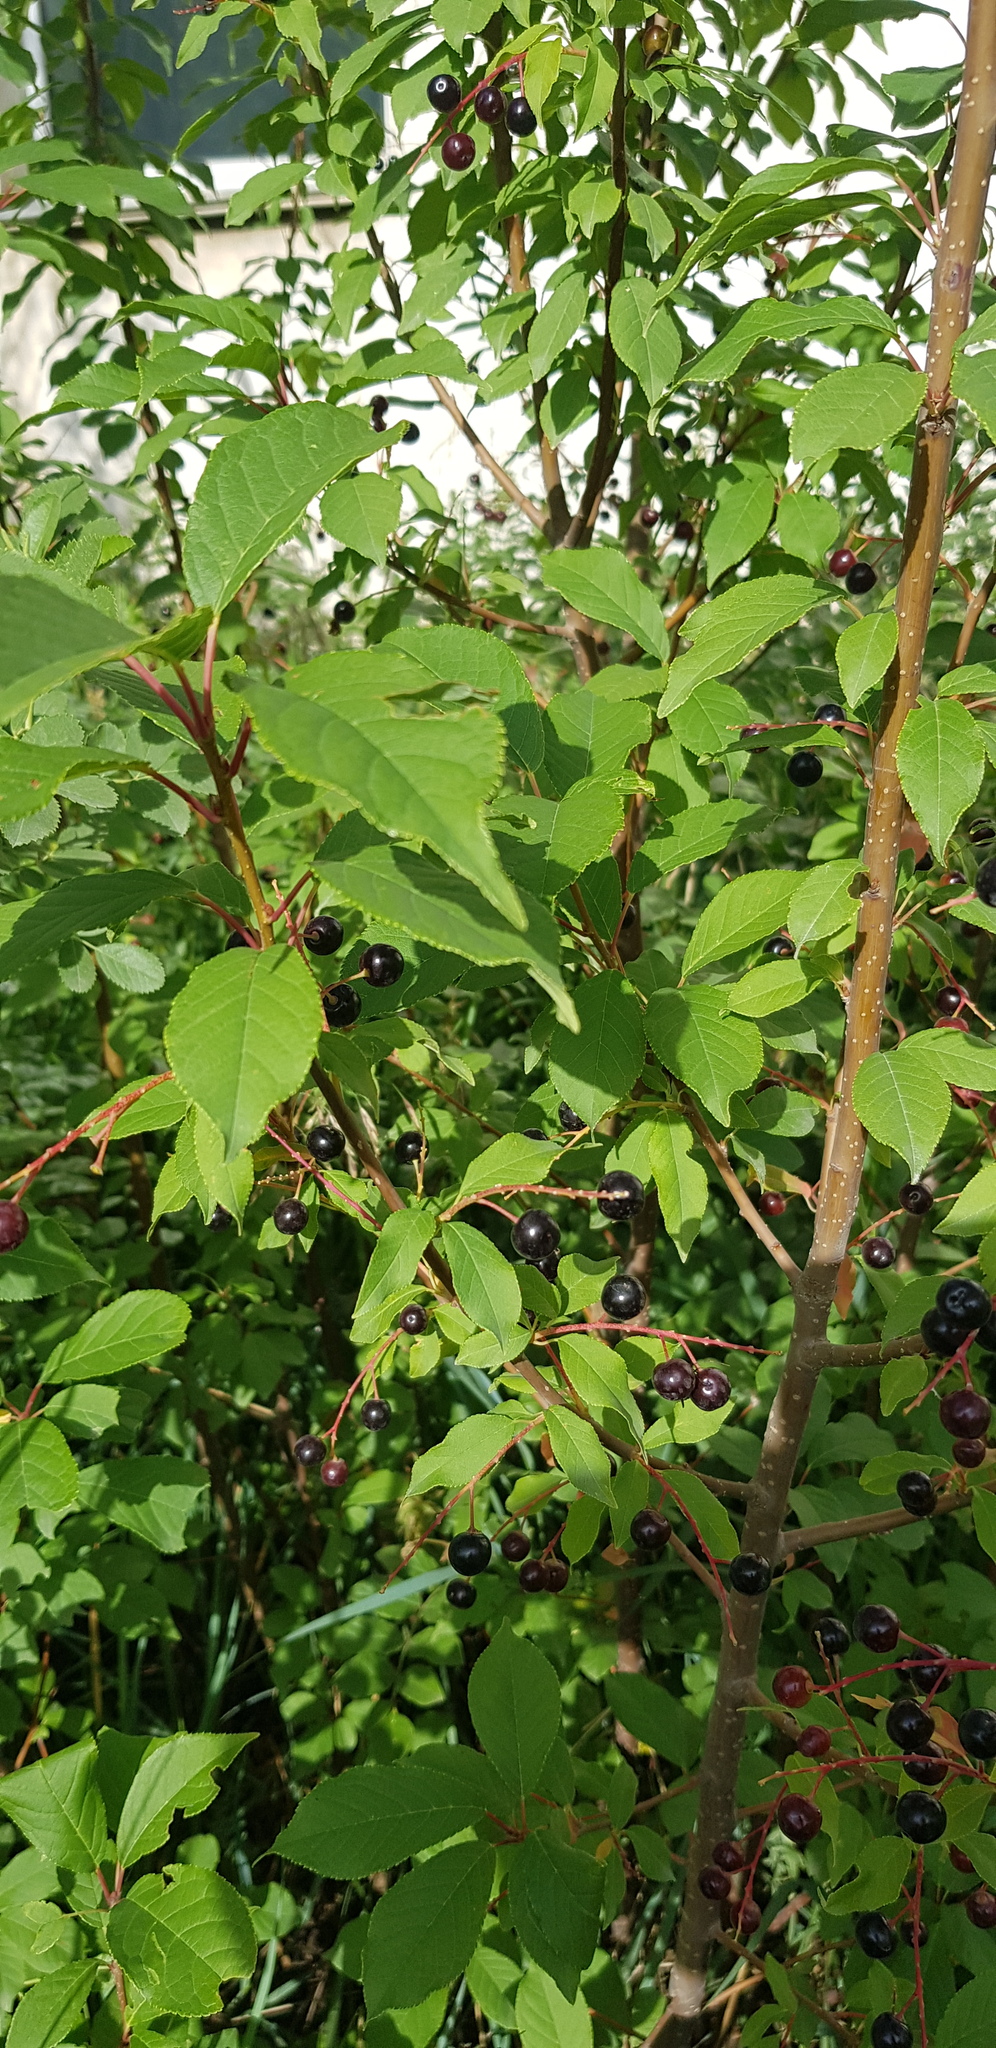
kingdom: Plantae
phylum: Tracheophyta
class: Magnoliopsida
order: Rosales
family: Rosaceae
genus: Prunus
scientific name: Prunus padus
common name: Bird cherry
